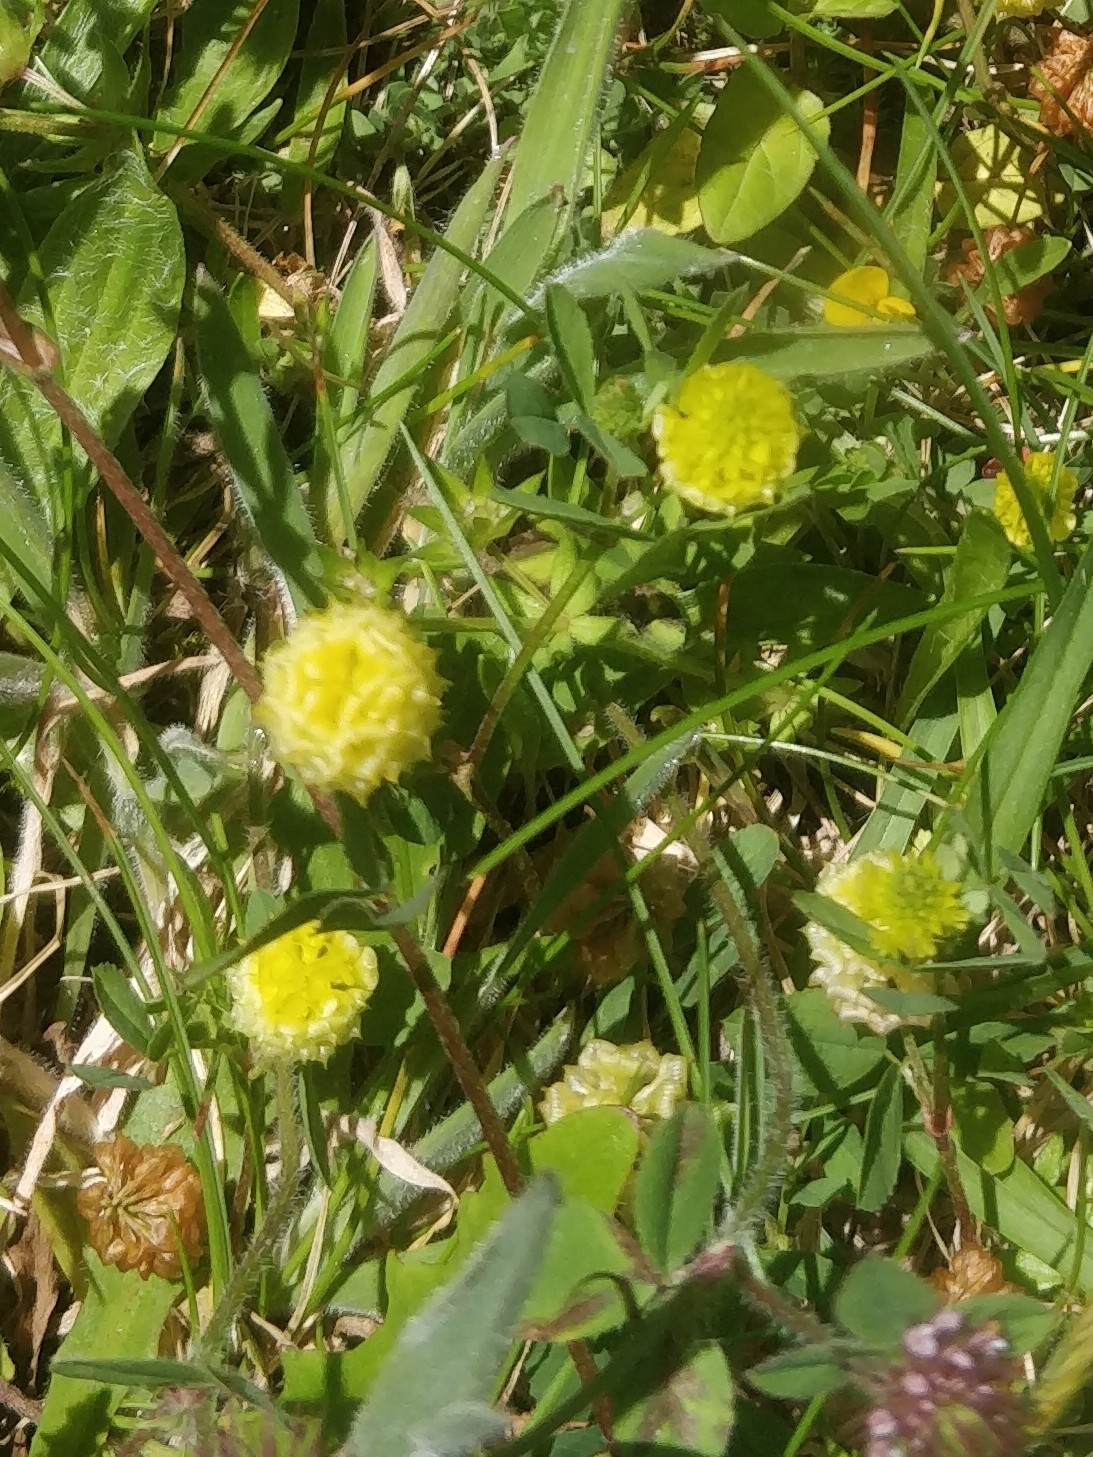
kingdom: Plantae
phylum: Tracheophyta
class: Magnoliopsida
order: Fabales
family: Fabaceae
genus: Trifolium
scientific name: Trifolium campestre
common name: Field clover
